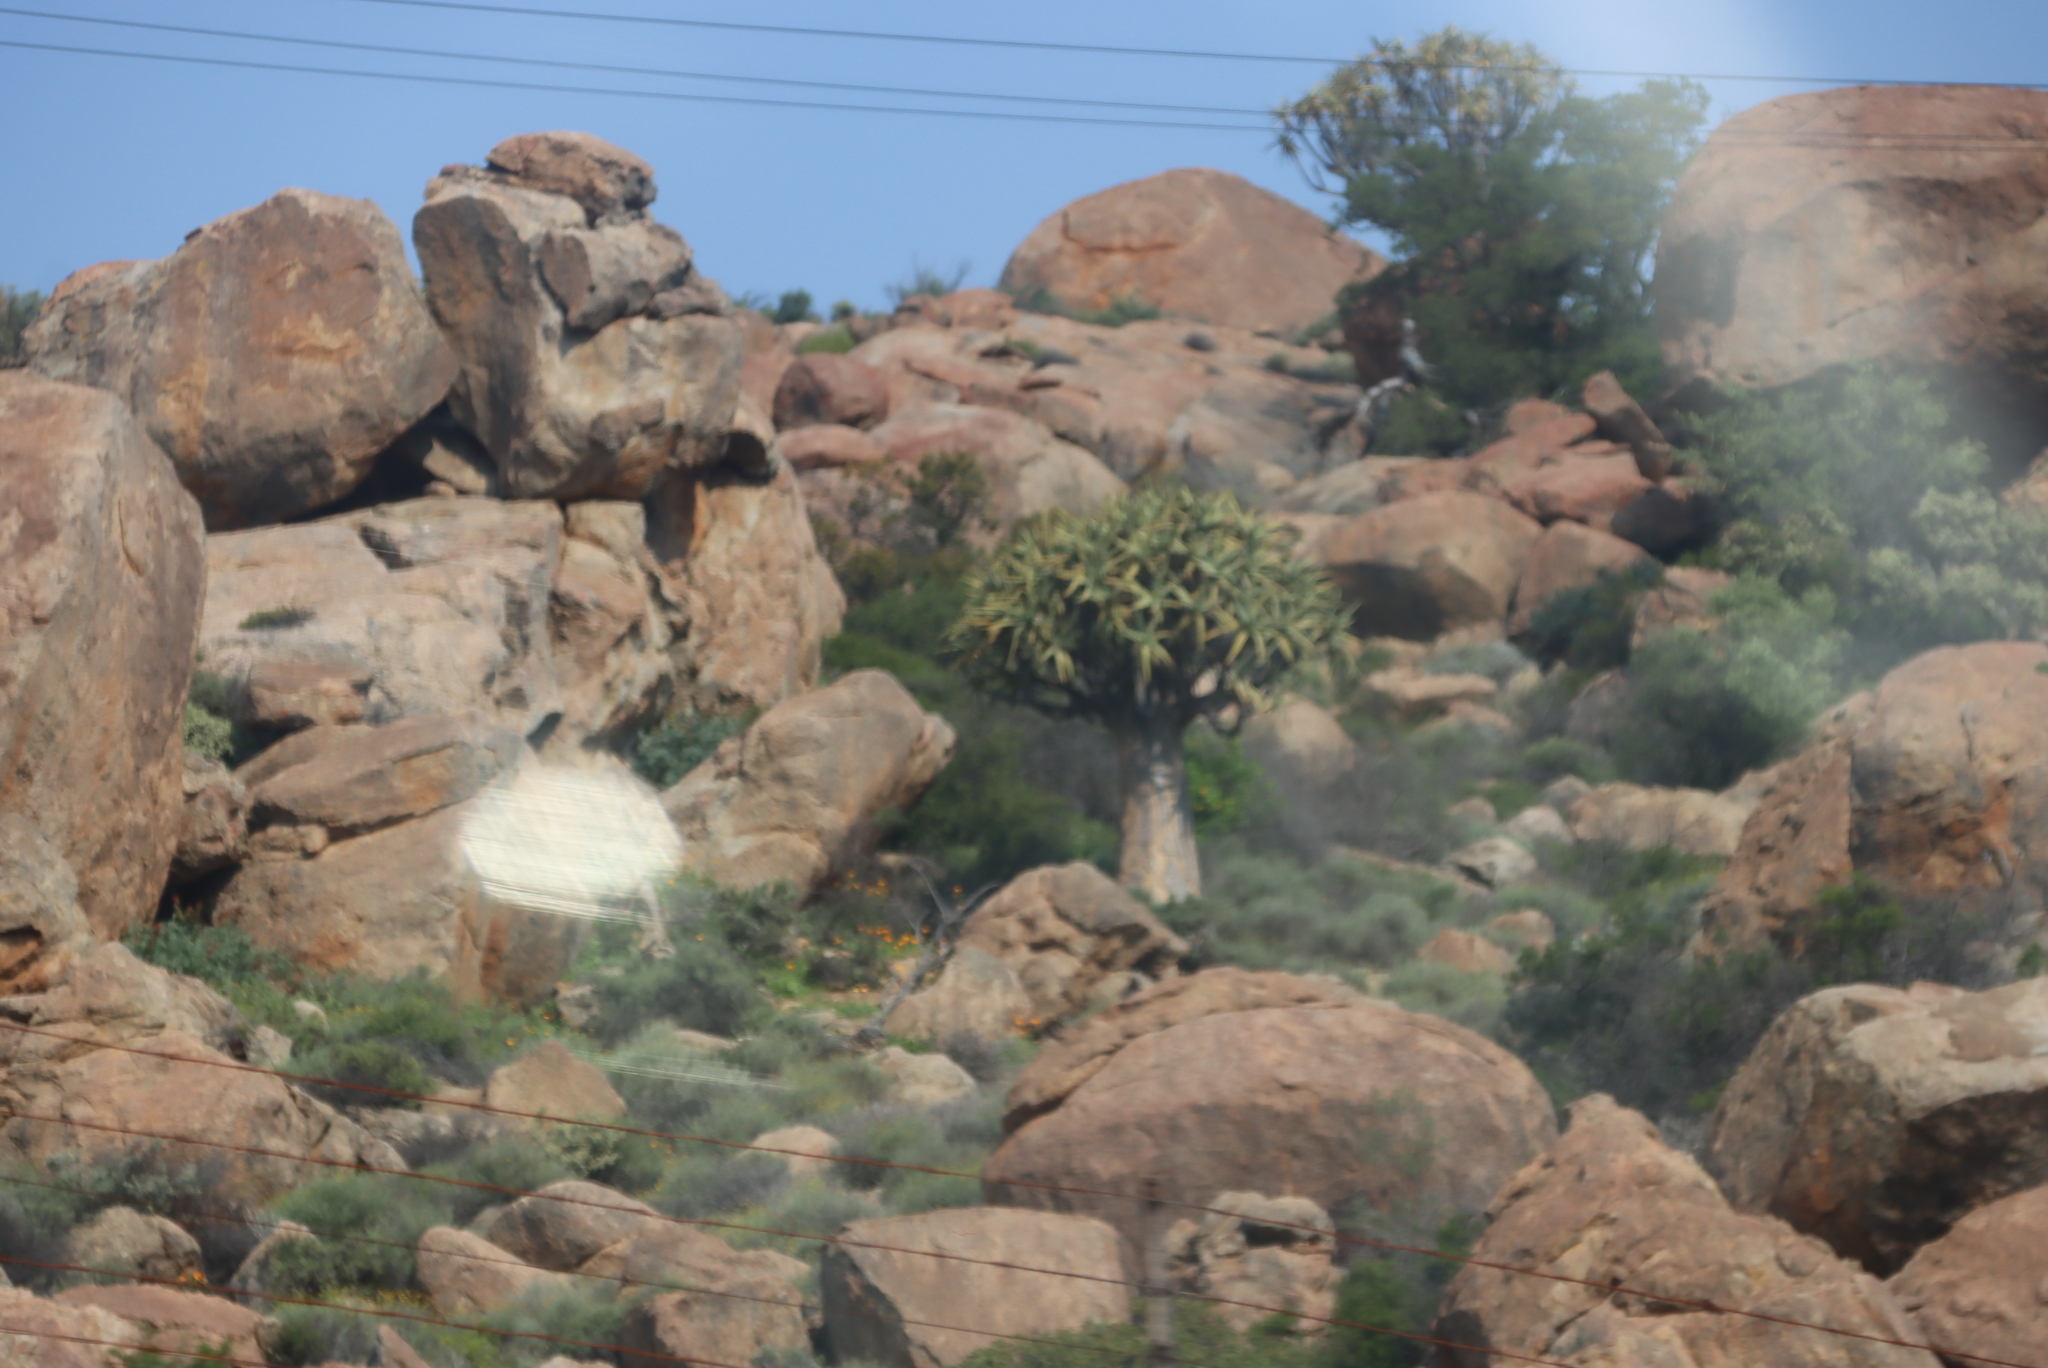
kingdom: Plantae
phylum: Tracheophyta
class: Liliopsida
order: Asparagales
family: Asphodelaceae
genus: Aloidendron
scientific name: Aloidendron dichotomum
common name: Quiver tree
